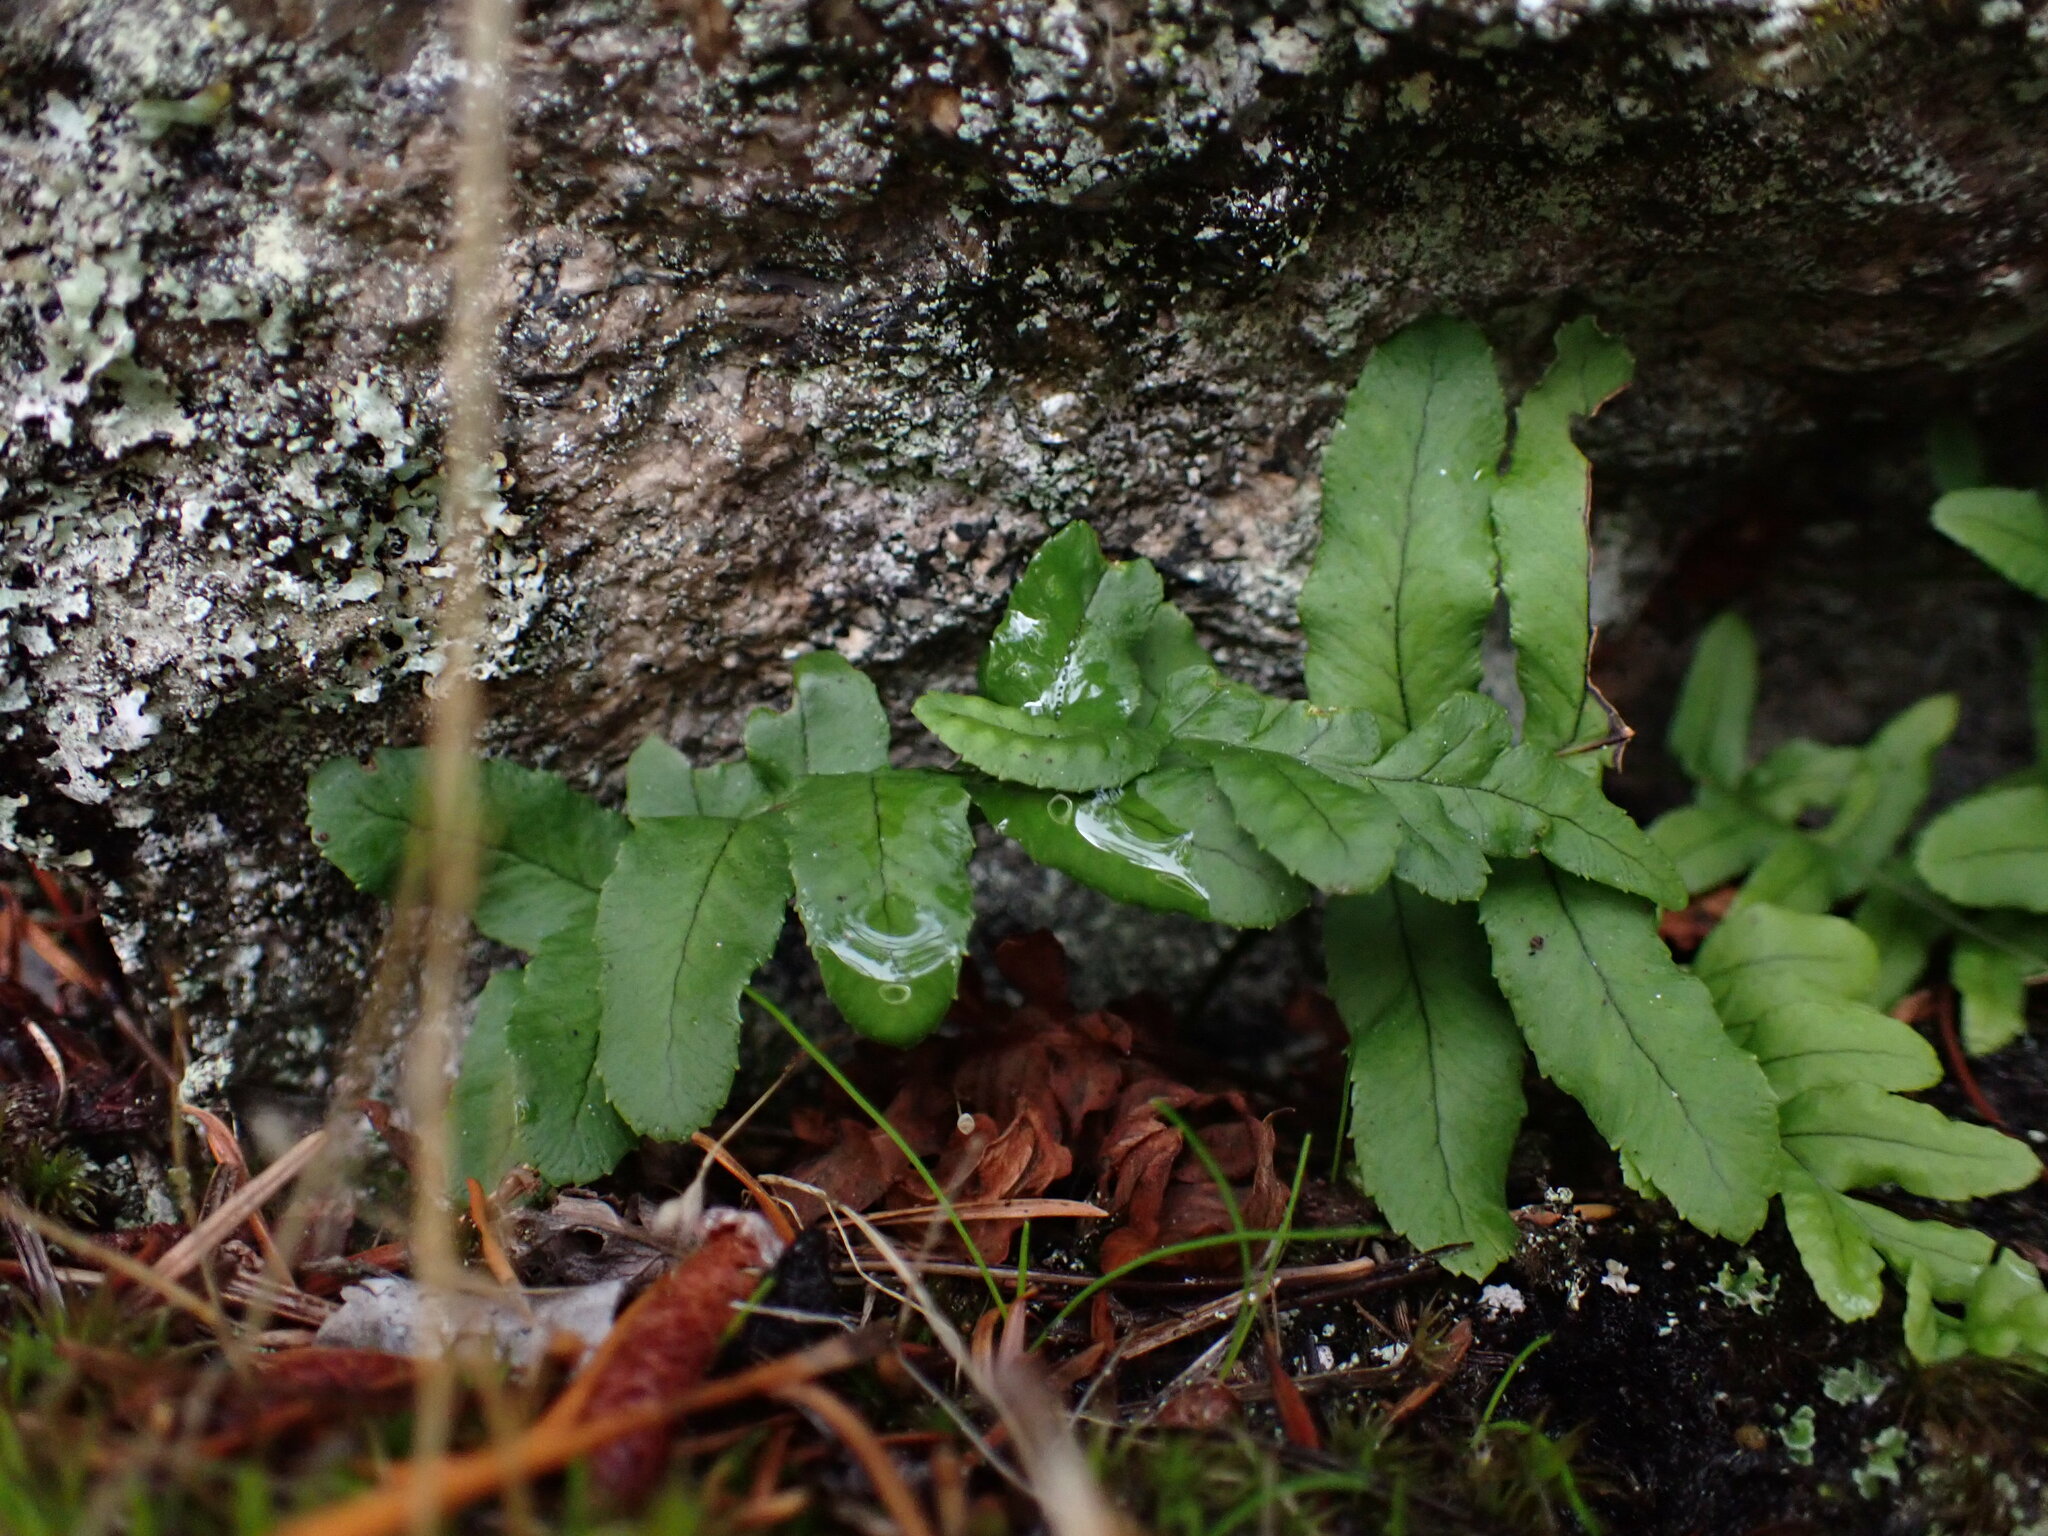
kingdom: Plantae
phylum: Tracheophyta
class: Polypodiopsida
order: Polypodiales
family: Polypodiaceae
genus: Polypodium
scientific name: Polypodium glycyrrhiza
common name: Licorice fern
